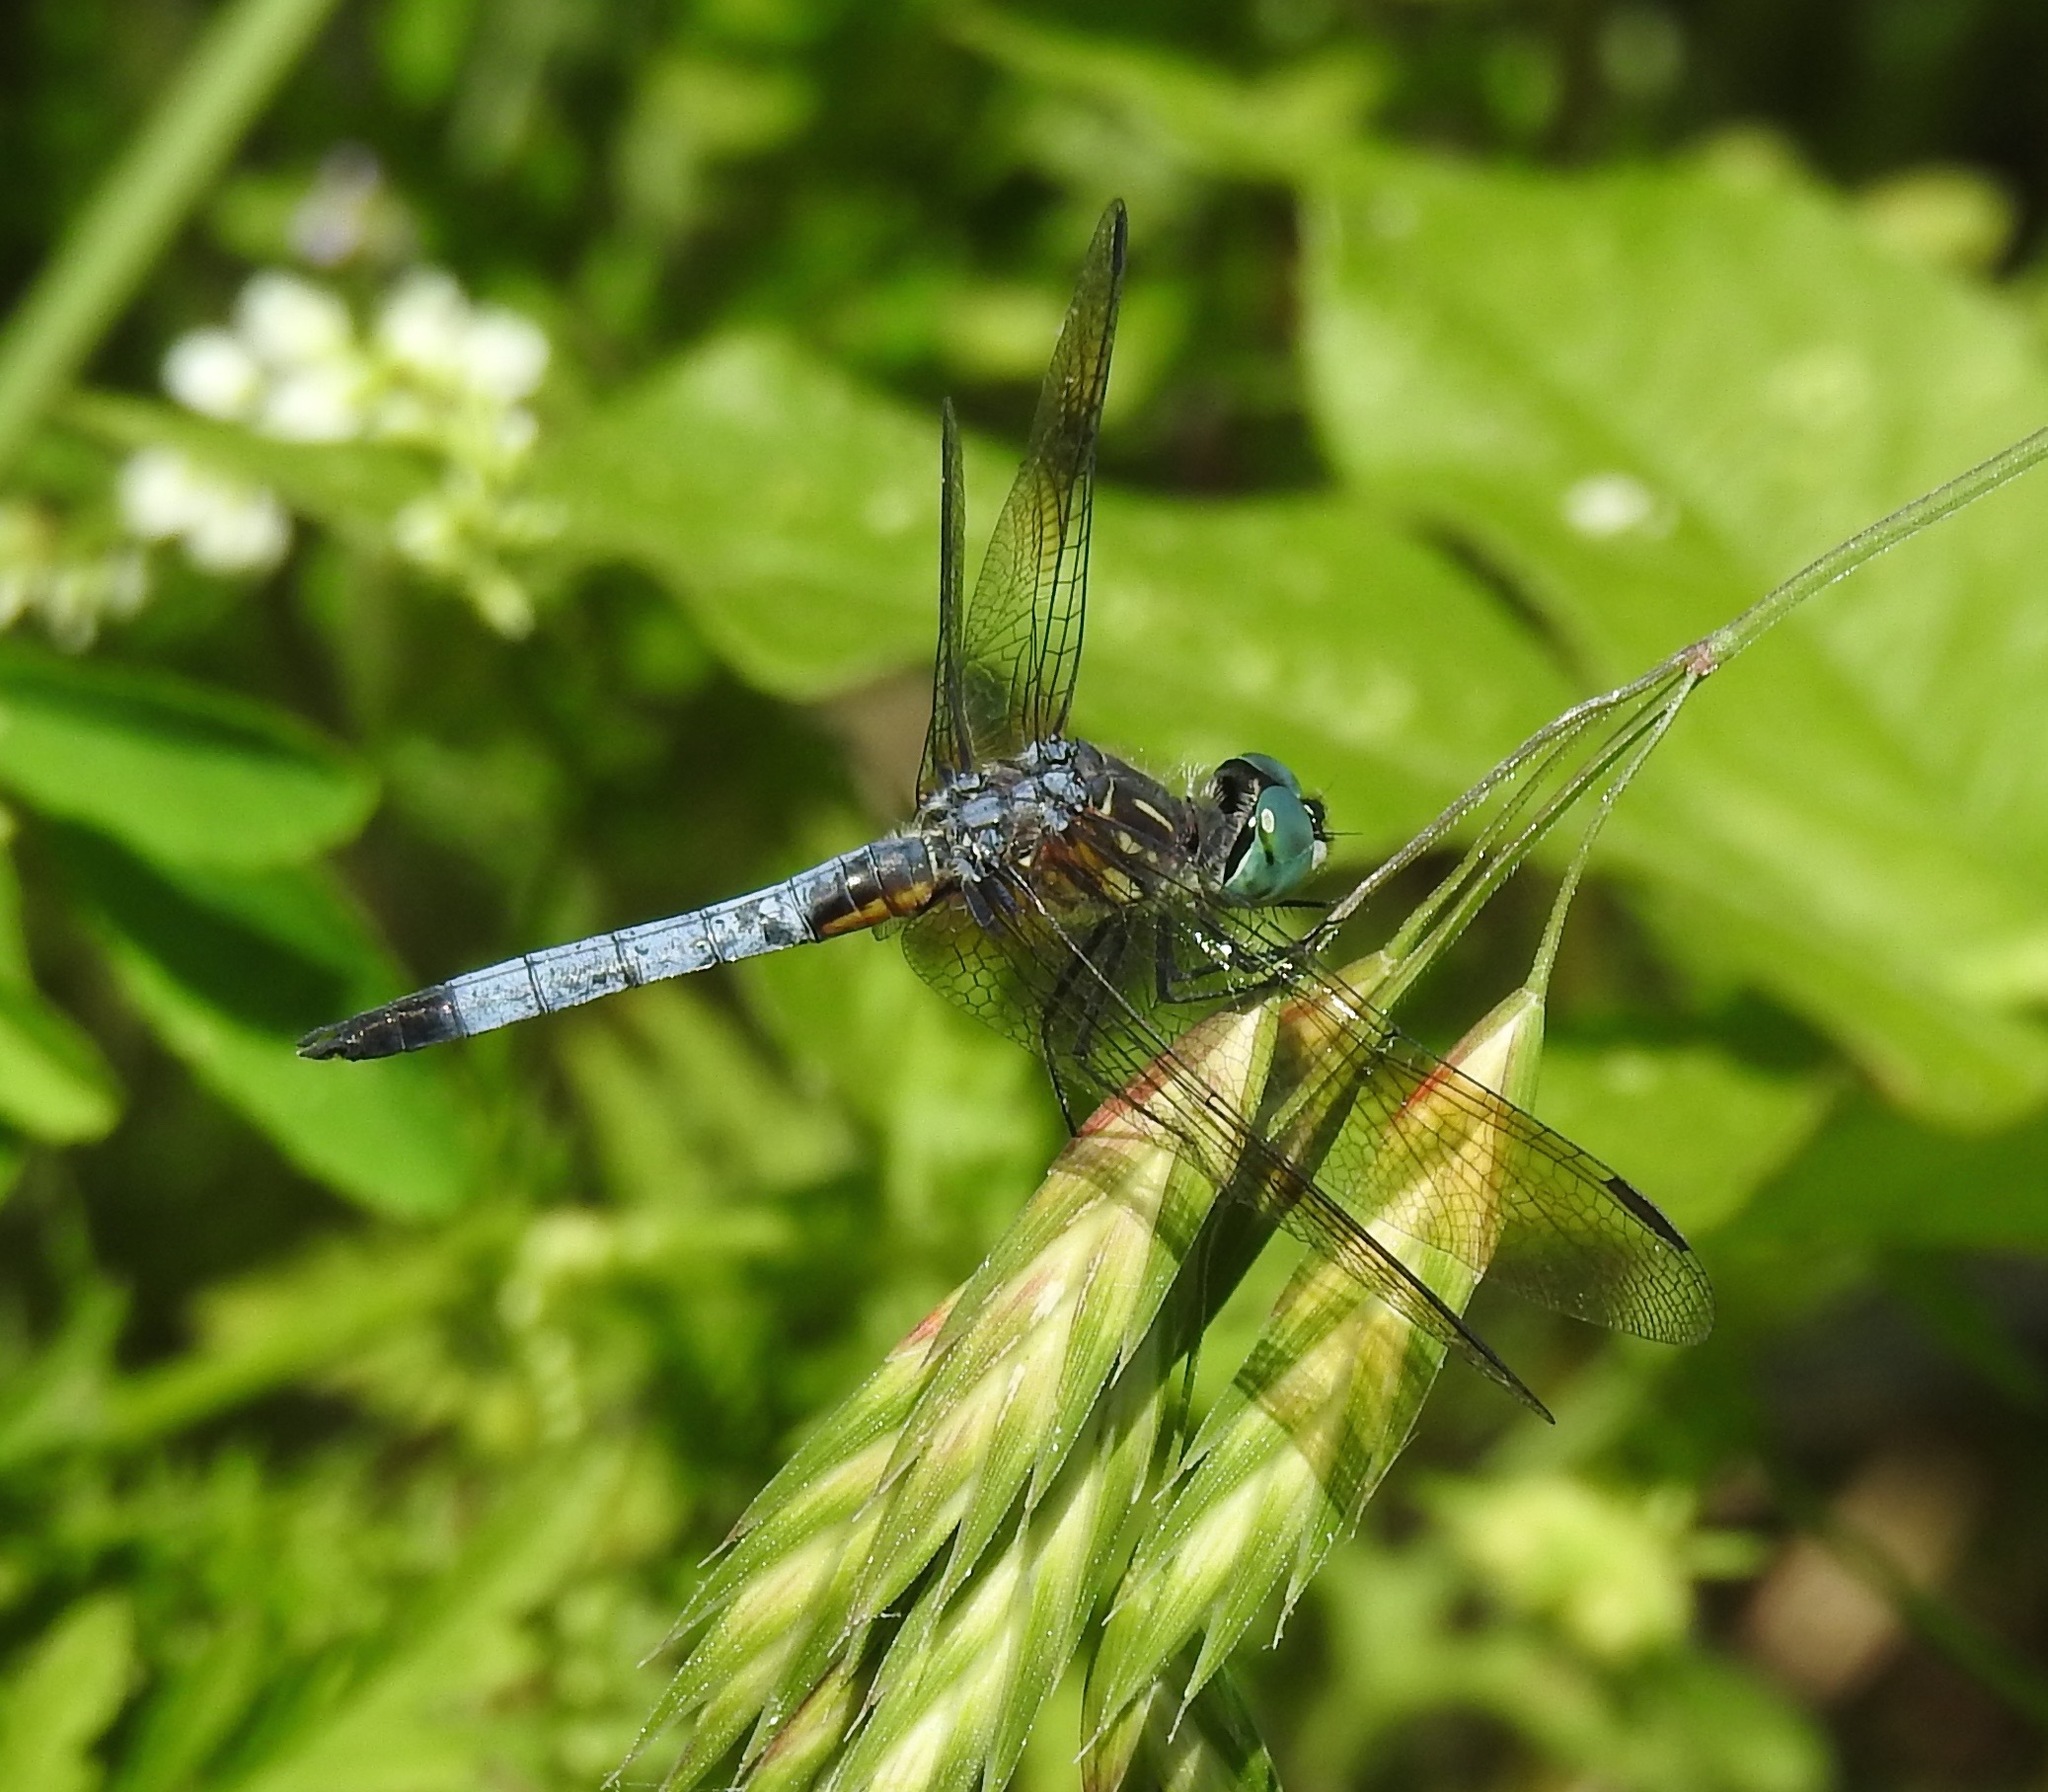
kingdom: Animalia
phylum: Arthropoda
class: Insecta
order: Odonata
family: Libellulidae
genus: Pachydiplax
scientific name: Pachydiplax longipennis
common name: Blue dasher
